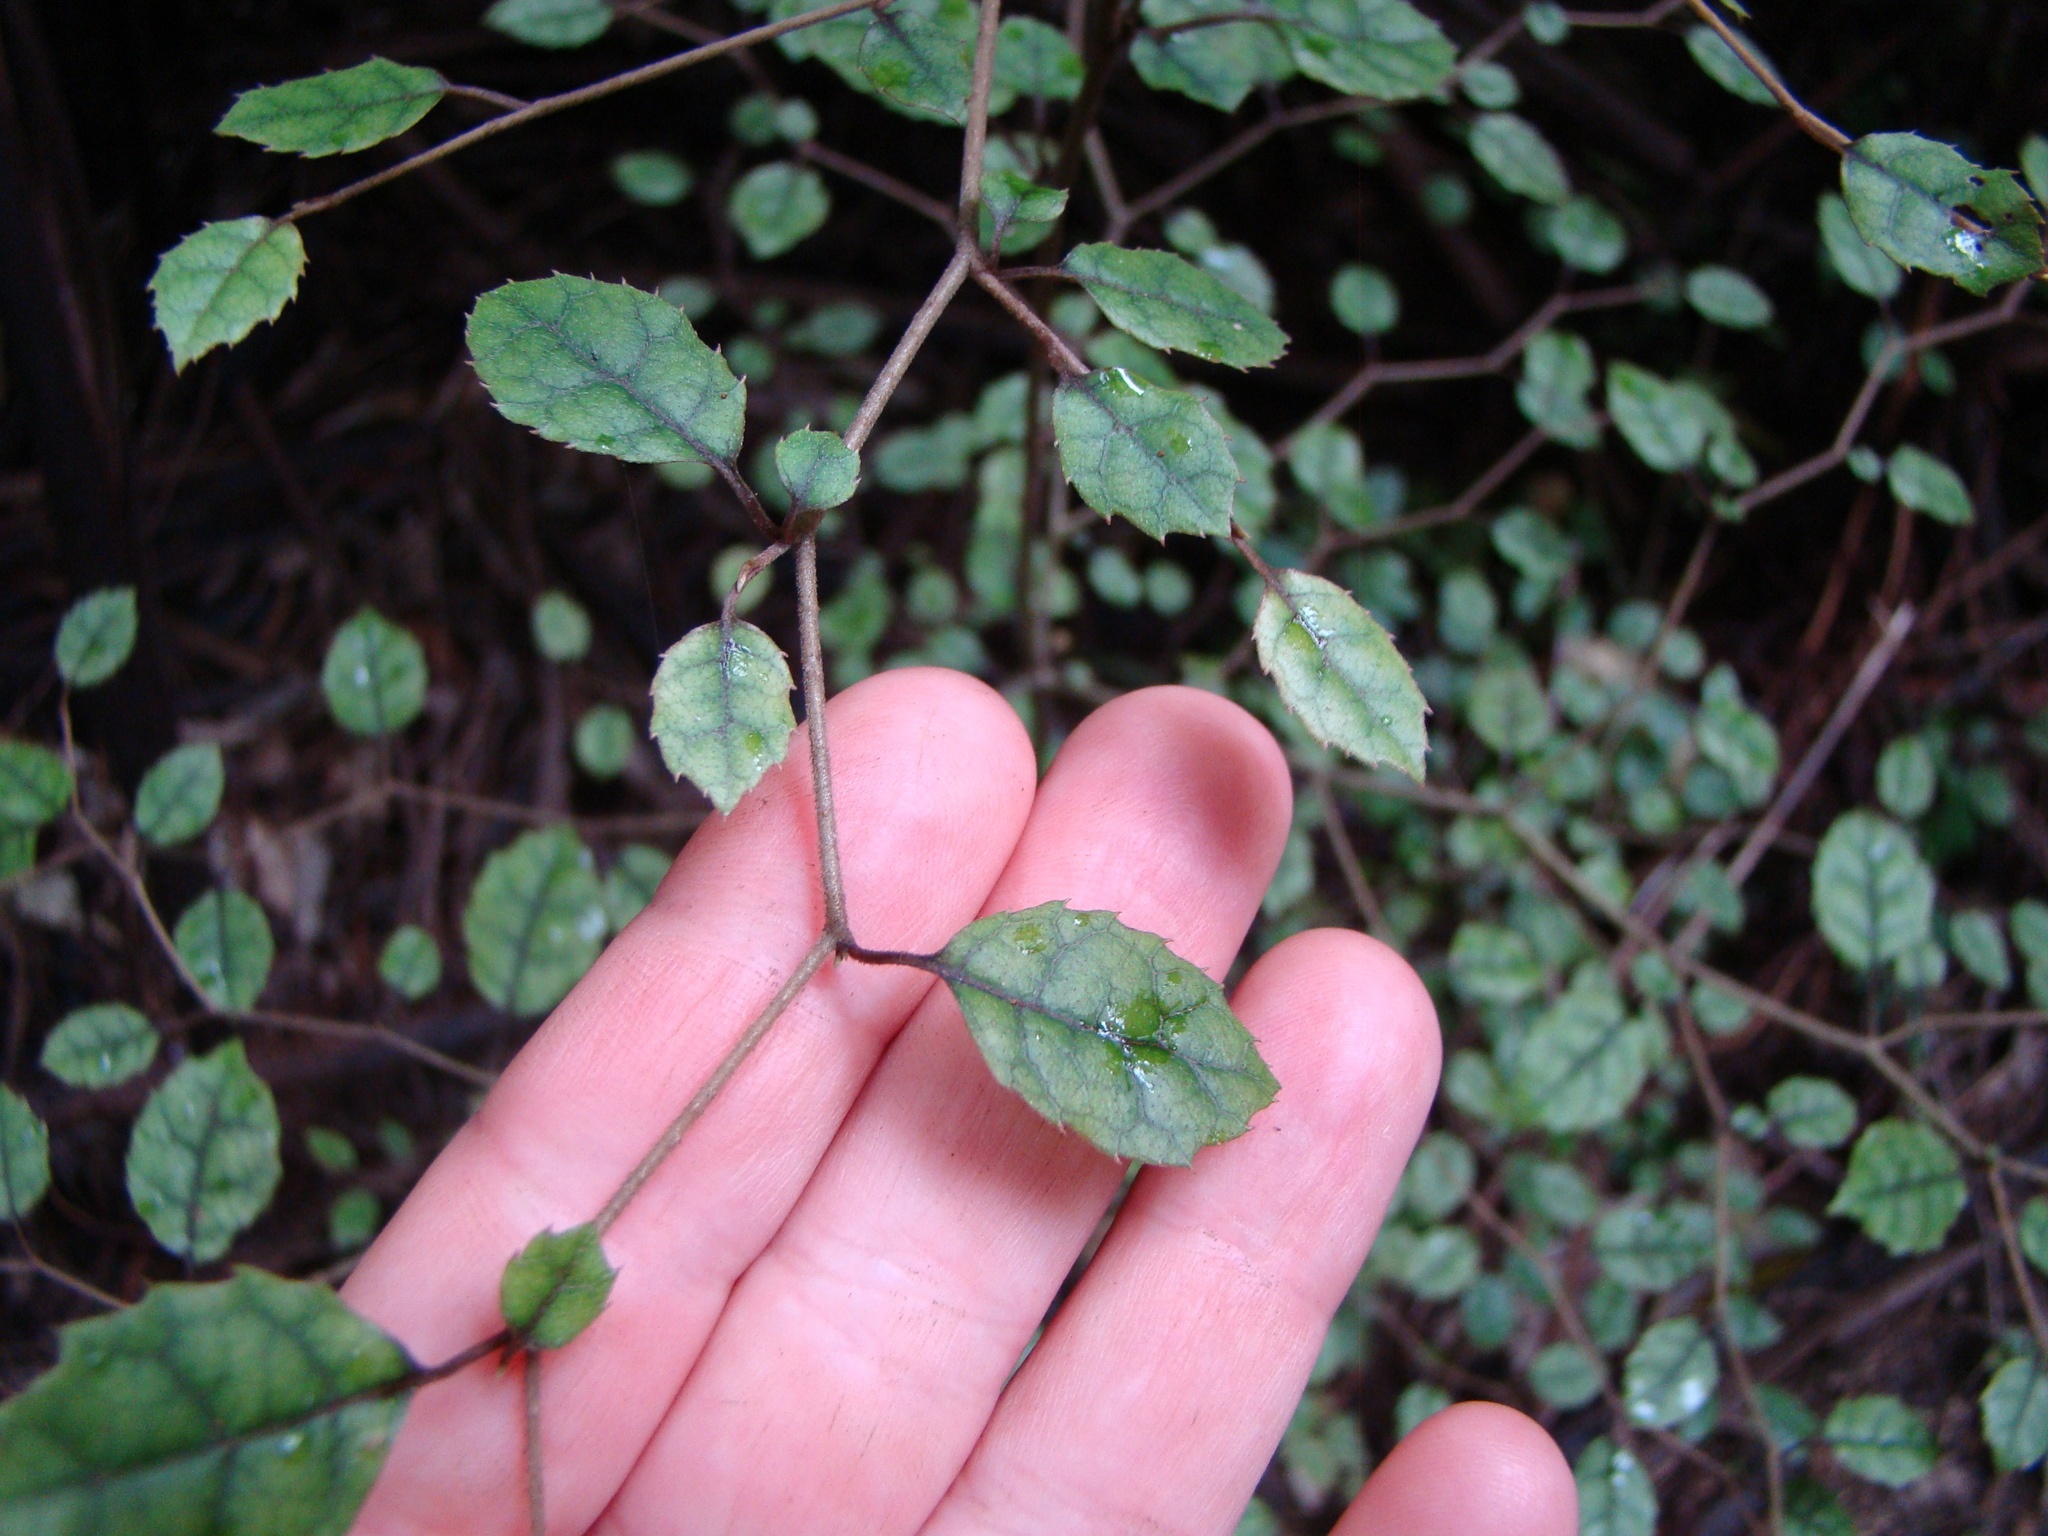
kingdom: Plantae
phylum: Tracheophyta
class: Magnoliopsida
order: Asterales
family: Rousseaceae
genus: Carpodetus
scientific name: Carpodetus serratus
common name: White mapau
